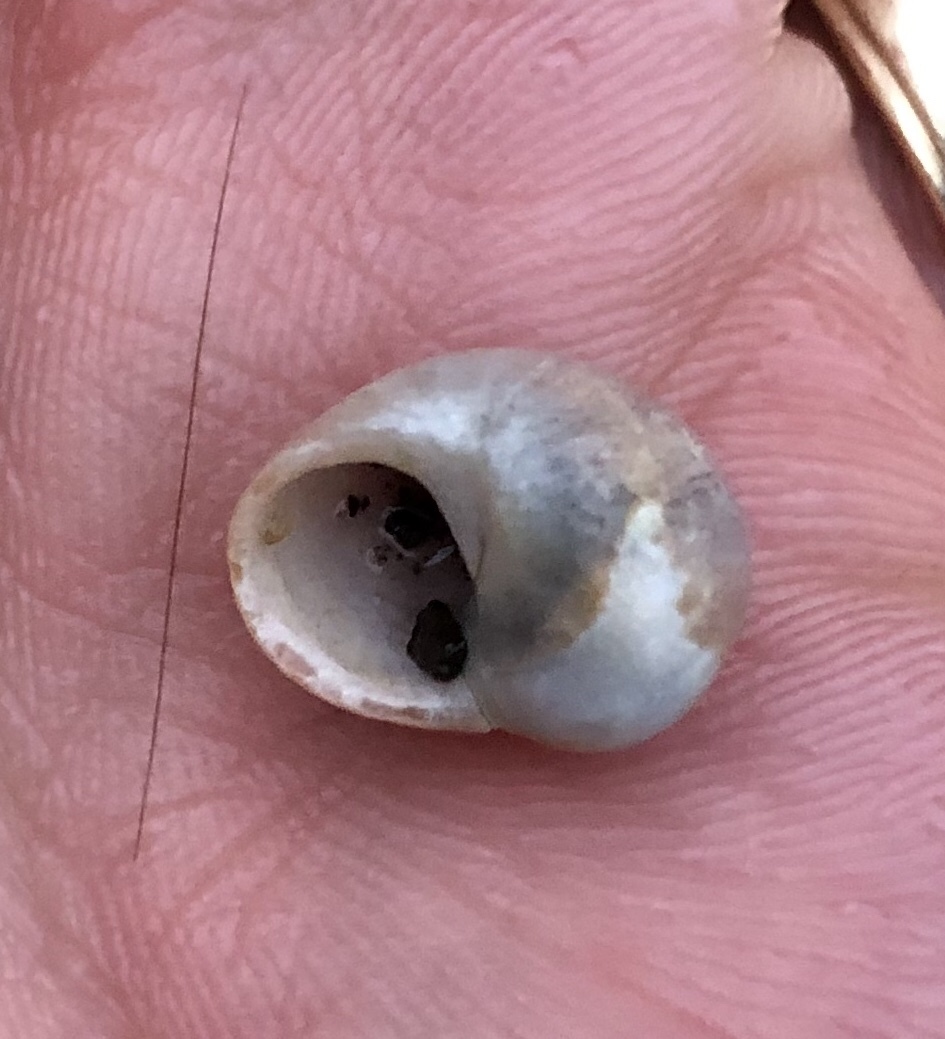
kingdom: Animalia
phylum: Mollusca
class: Gastropoda
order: Littorinimorpha
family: Littorinidae
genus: Littorina
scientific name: Littorina obtusata
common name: Flat periwinkle
